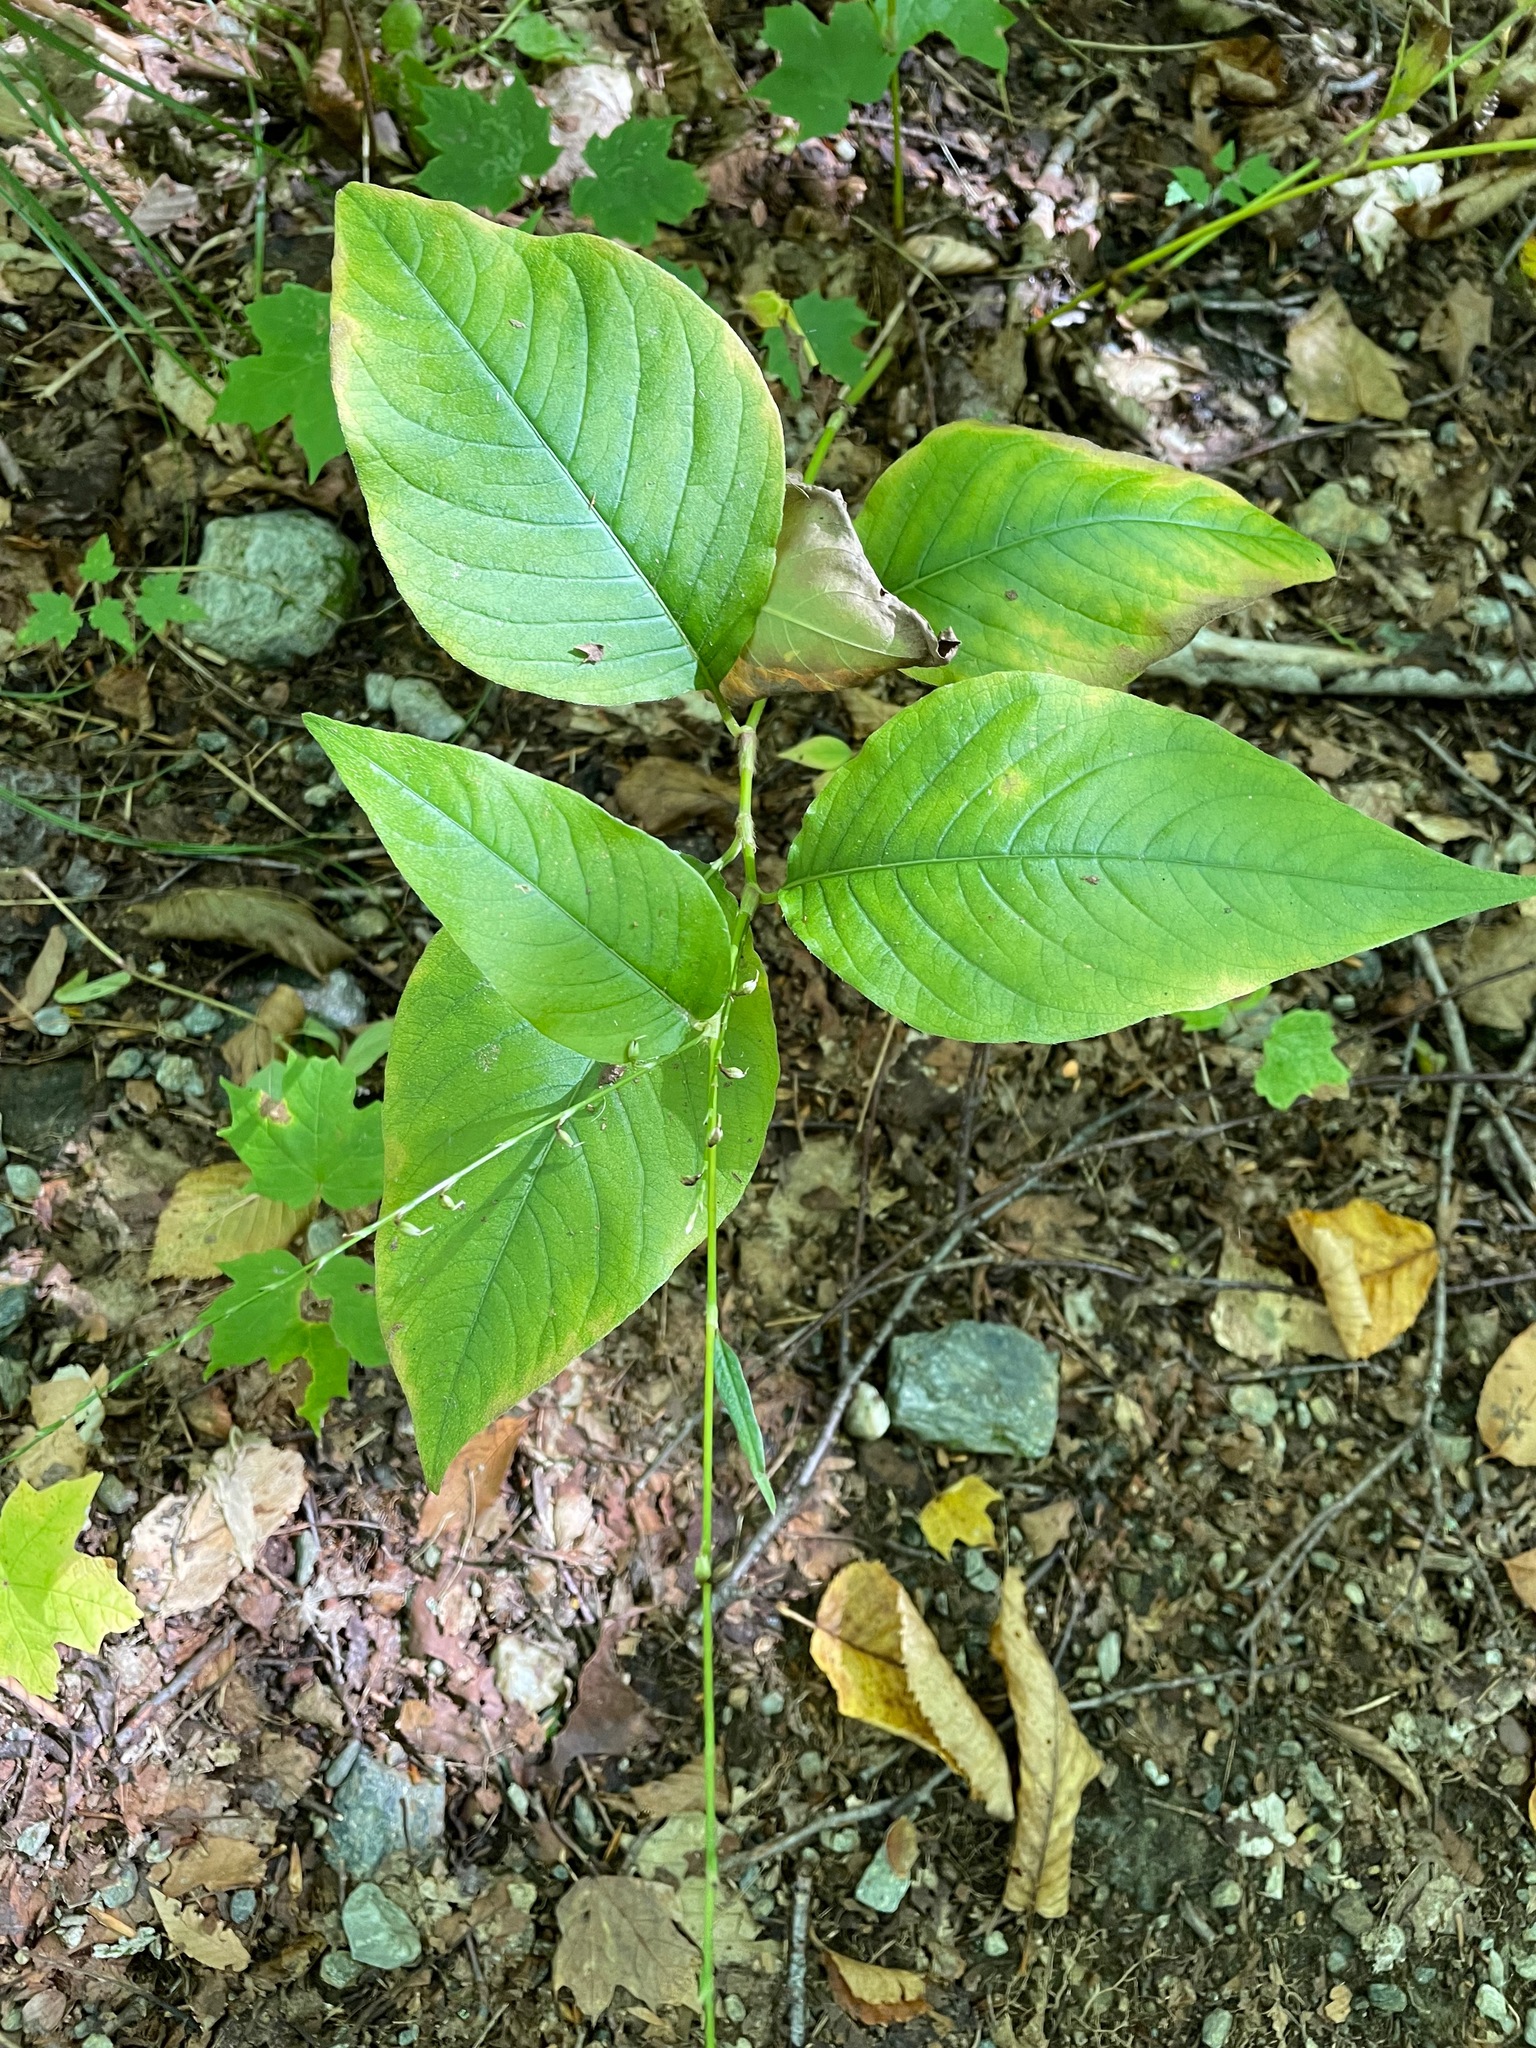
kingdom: Plantae
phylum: Tracheophyta
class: Magnoliopsida
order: Caryophyllales
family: Polygonaceae
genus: Persicaria
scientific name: Persicaria virginiana
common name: Jumpseed
